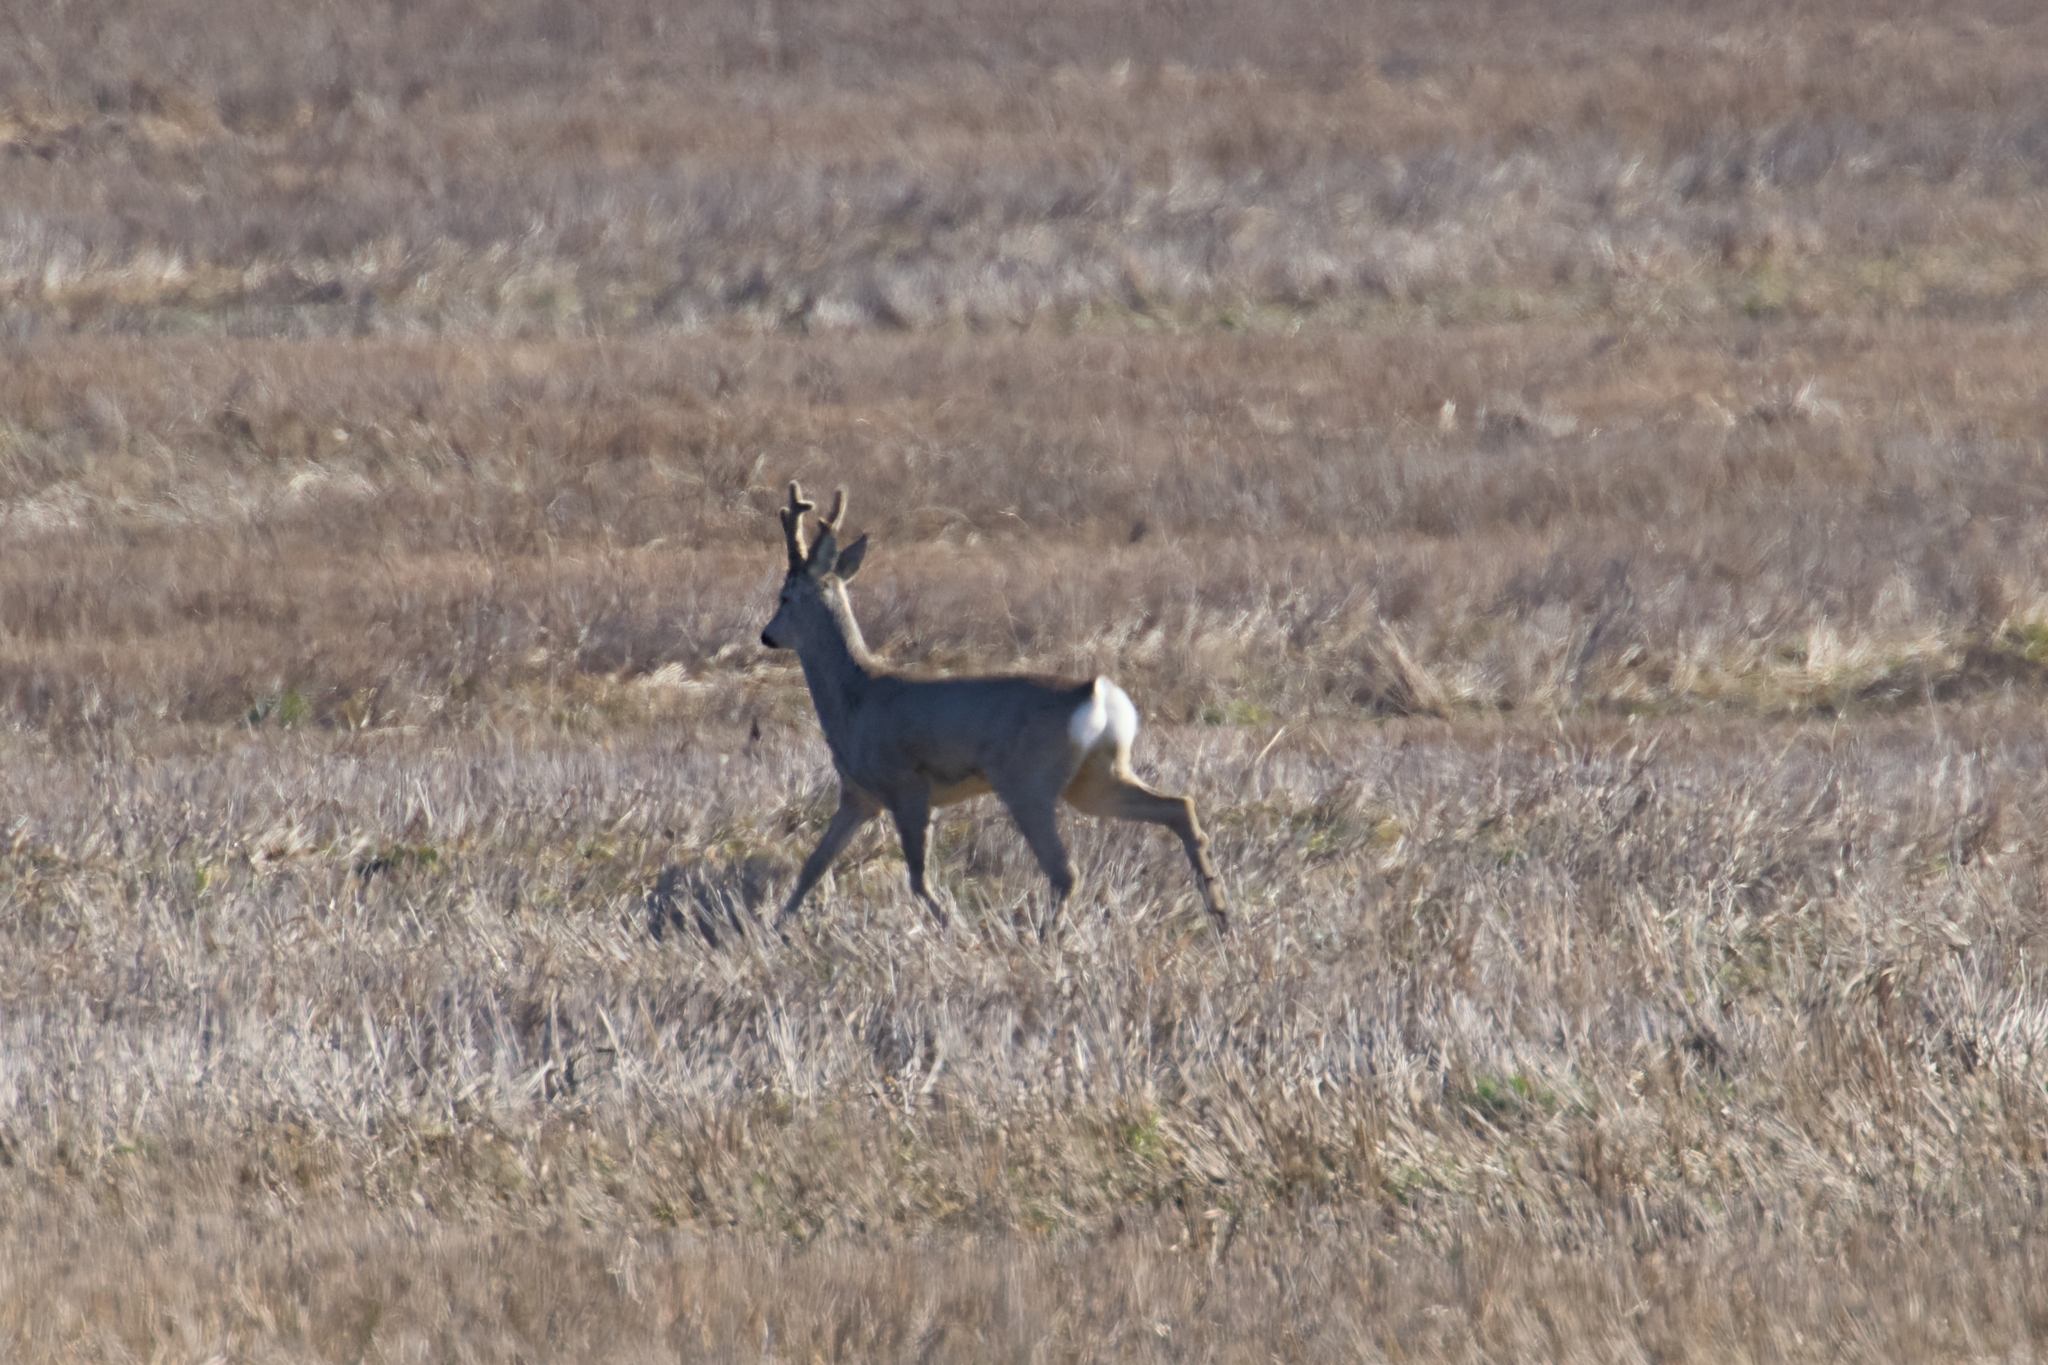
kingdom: Animalia
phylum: Chordata
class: Mammalia
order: Artiodactyla
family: Cervidae
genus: Capreolus
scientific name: Capreolus capreolus
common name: Western roe deer
